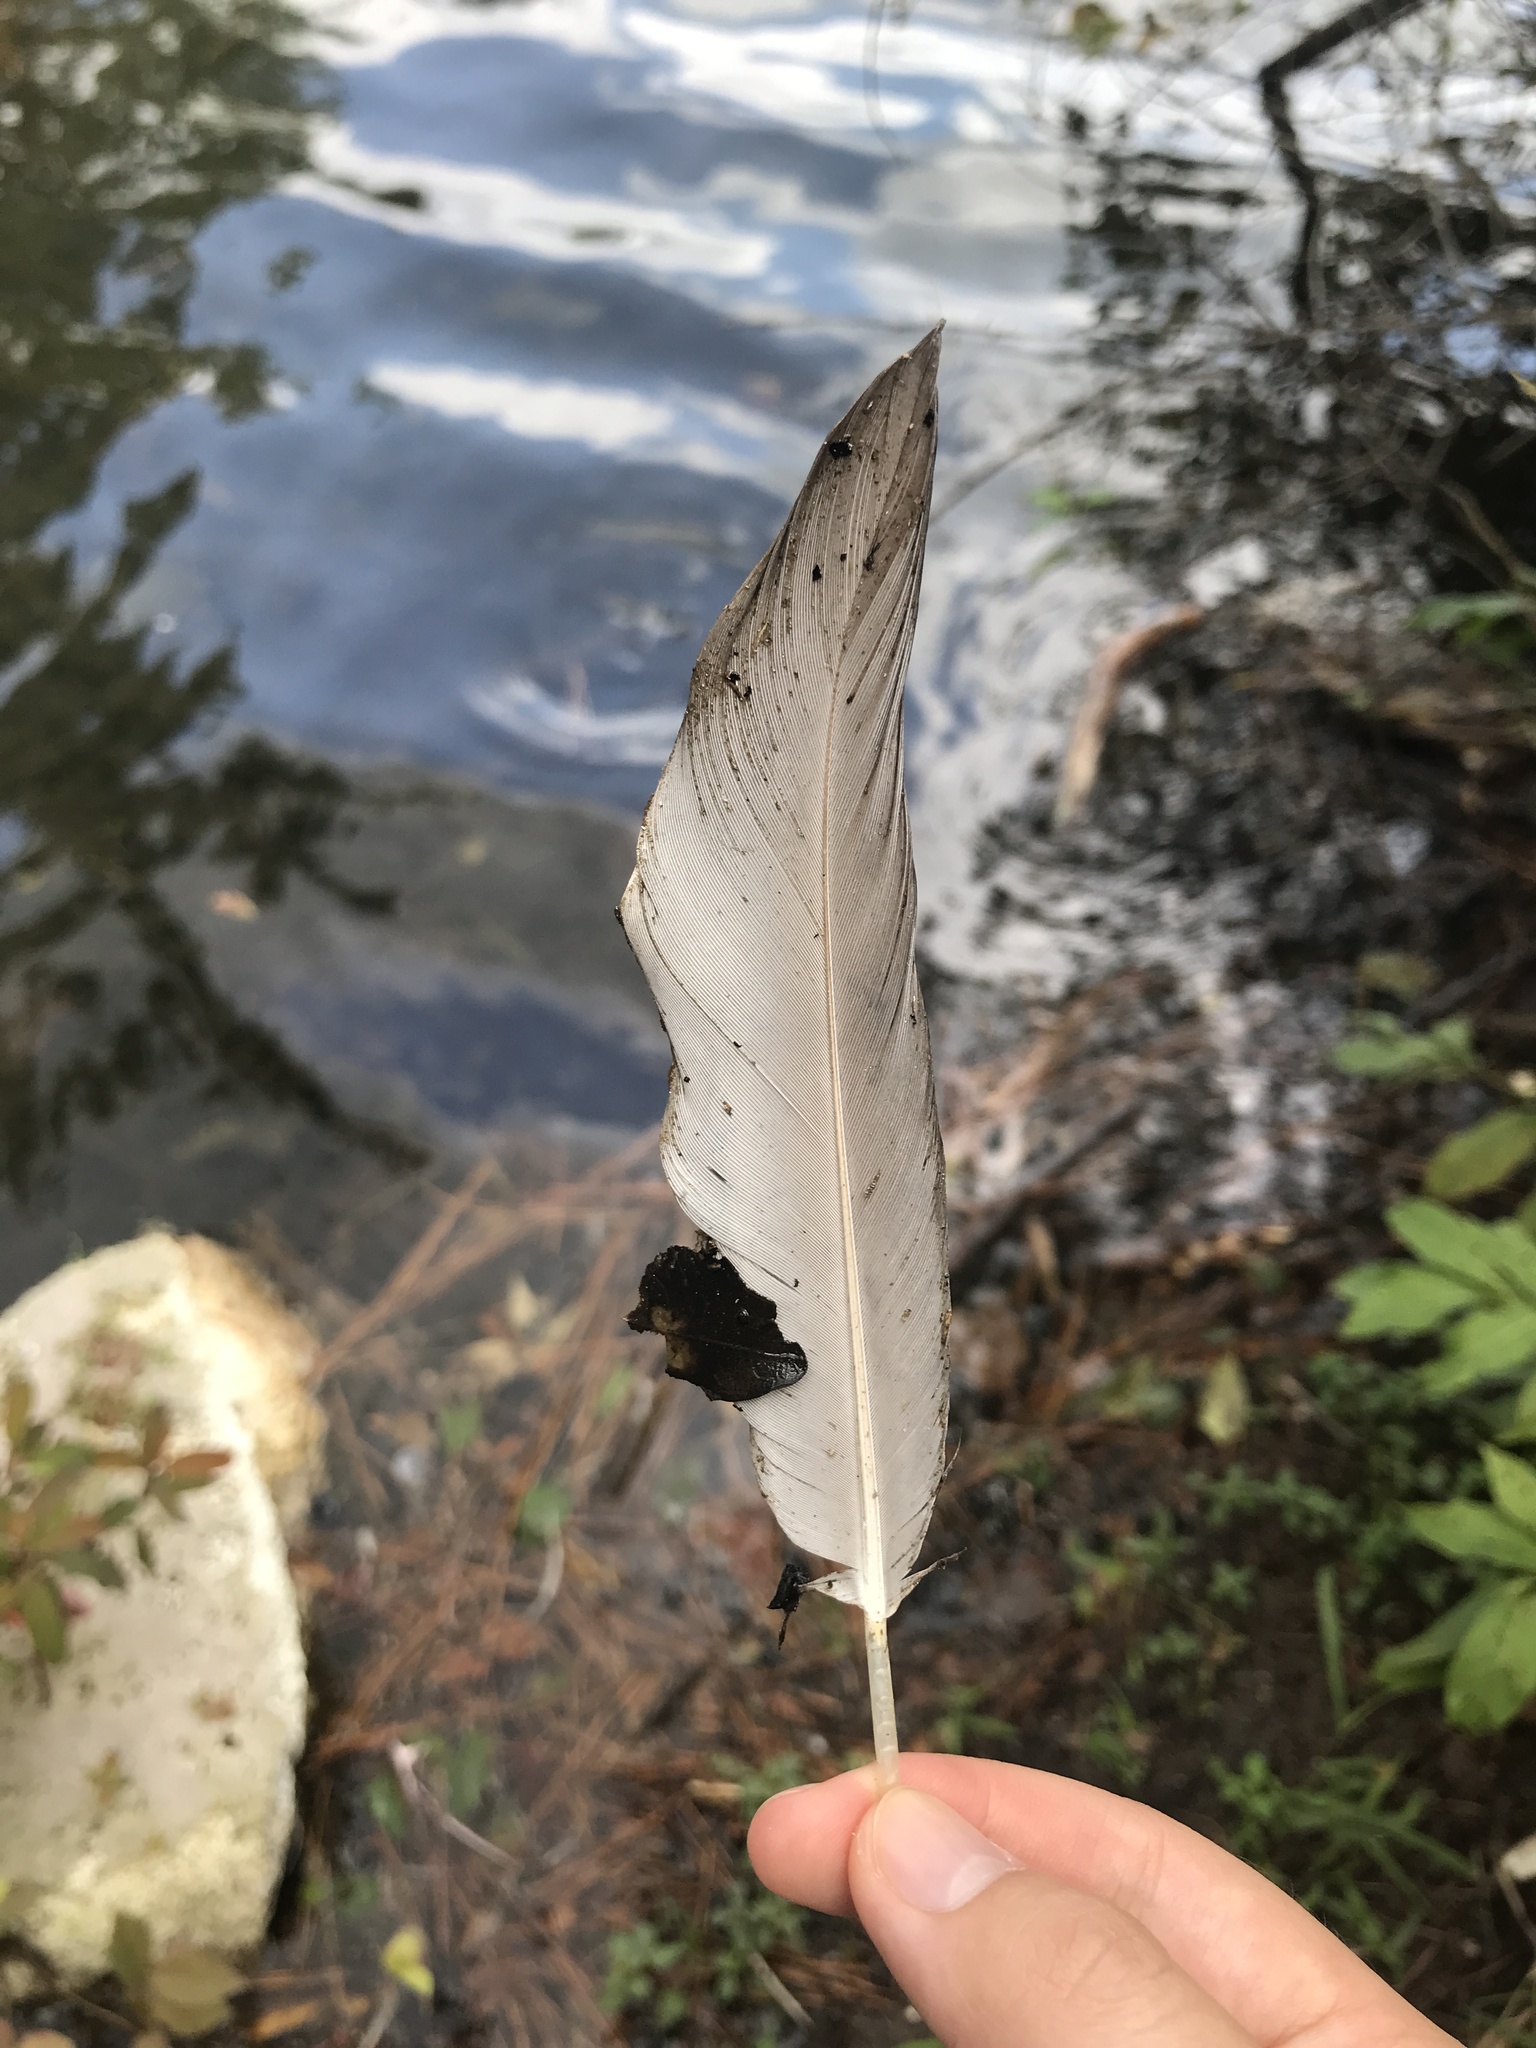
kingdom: Animalia
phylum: Chordata
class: Aves
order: Pelecaniformes
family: Ardeidae
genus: Ardea
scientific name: Ardea herodias
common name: Great blue heron
